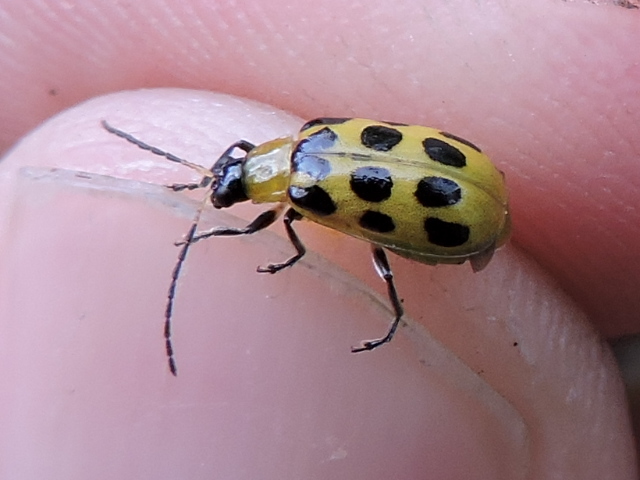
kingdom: Animalia
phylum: Arthropoda
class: Insecta
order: Coleoptera
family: Chrysomelidae
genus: Diabrotica
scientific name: Diabrotica undecimpunctata
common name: Spotted cucumber beetle
